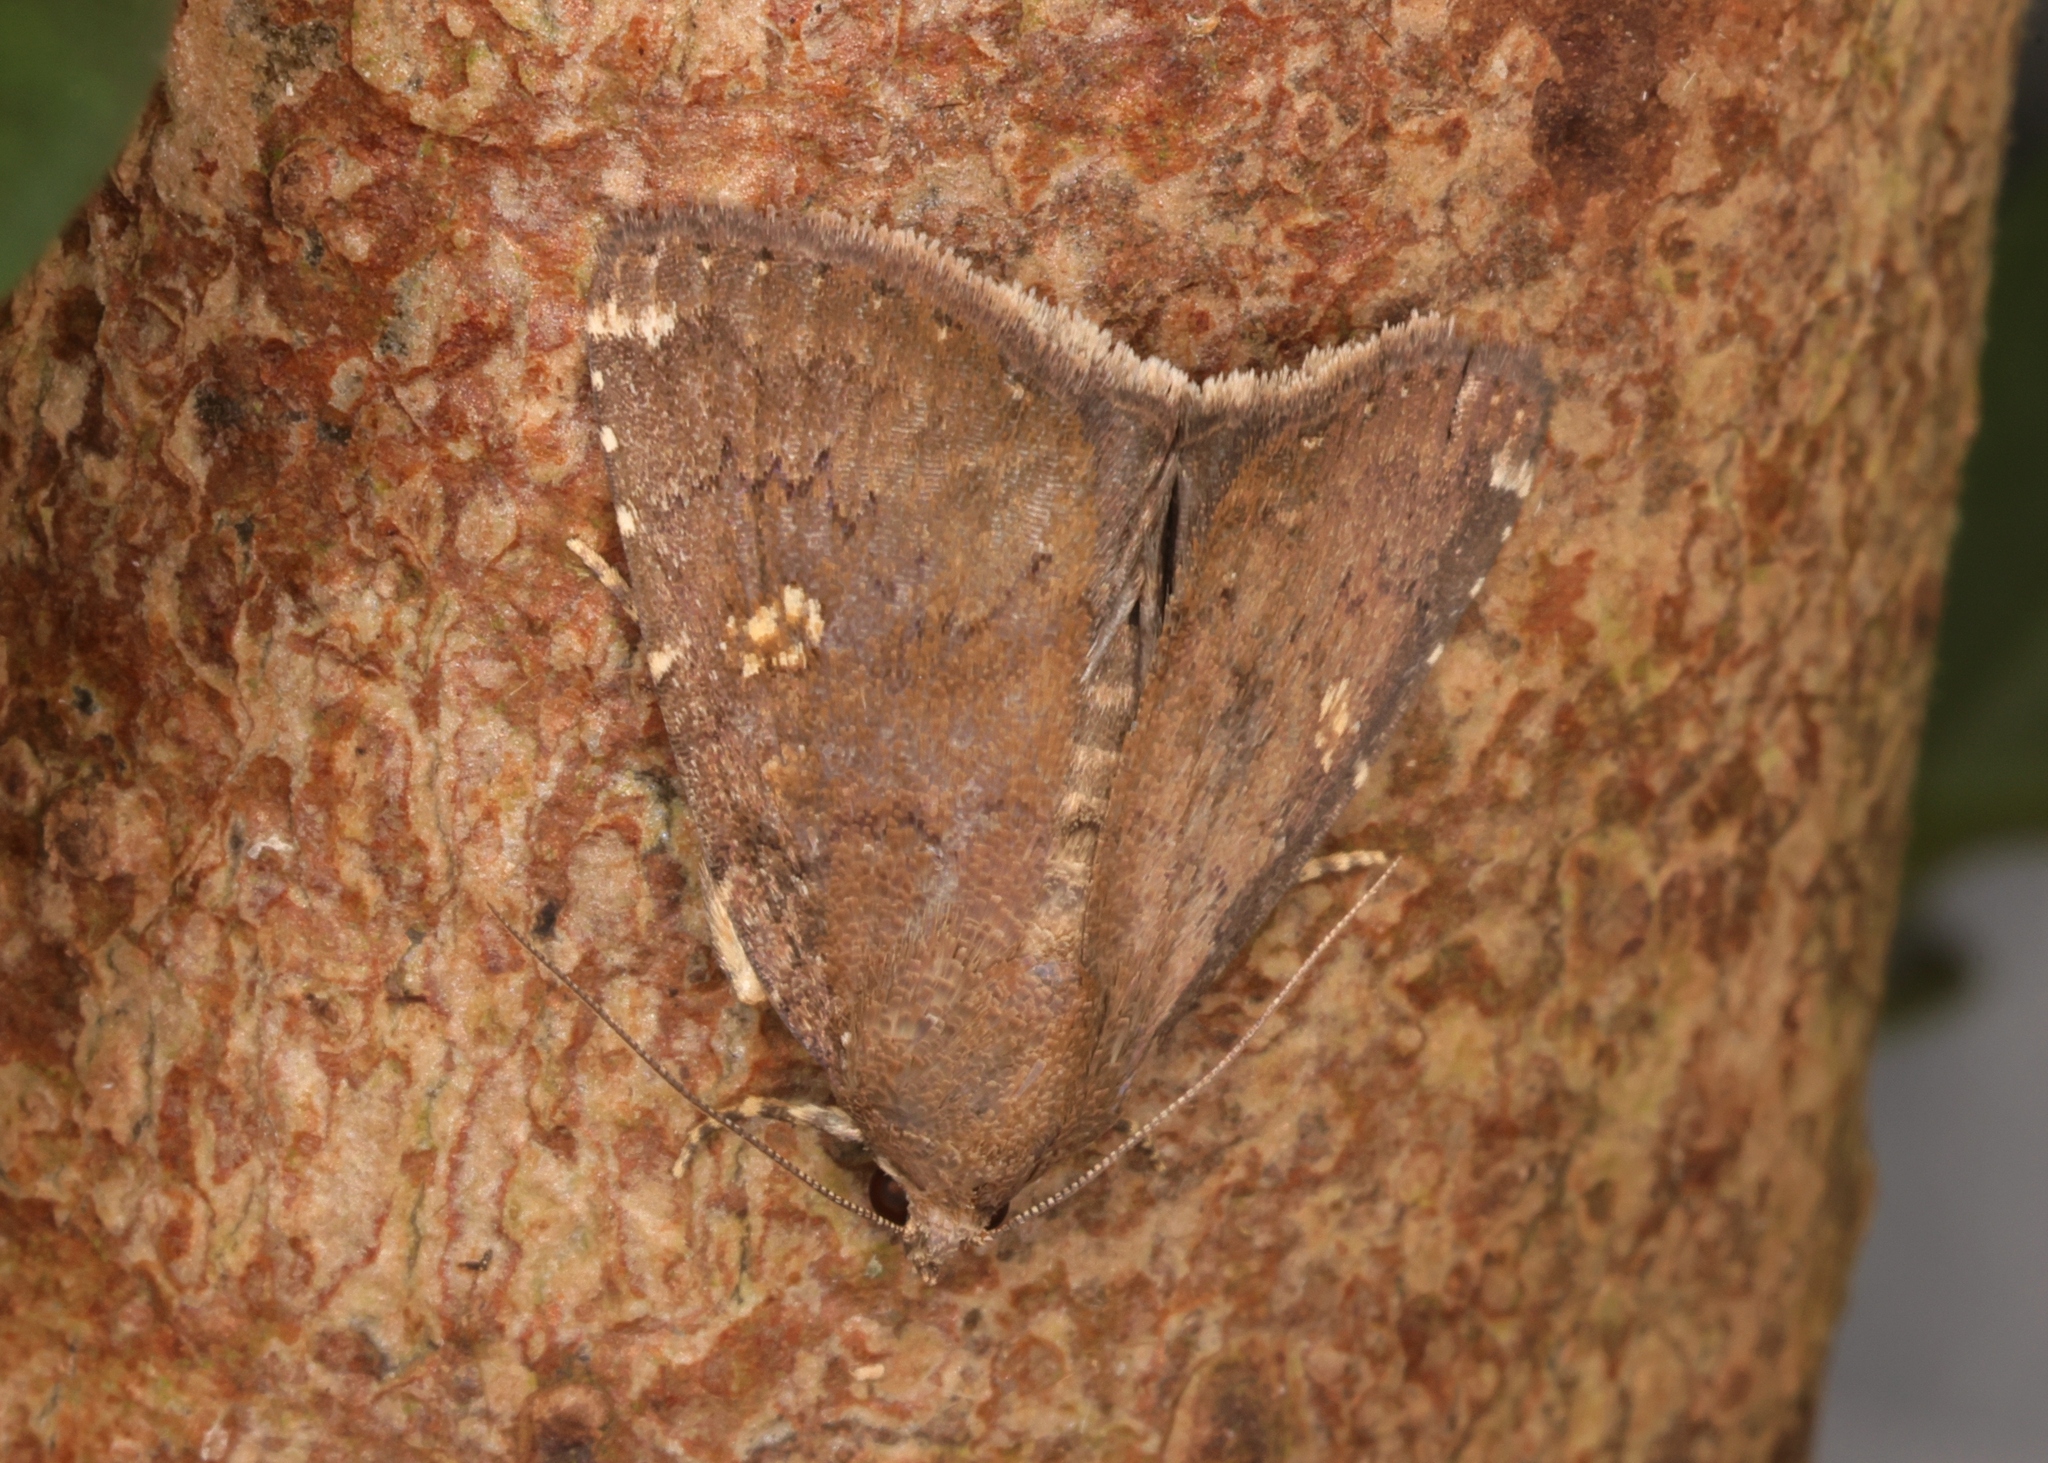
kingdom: Animalia
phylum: Arthropoda
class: Insecta
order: Lepidoptera
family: Noctuidae
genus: Amyna
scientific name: Amyna natalis
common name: Iiima moth
